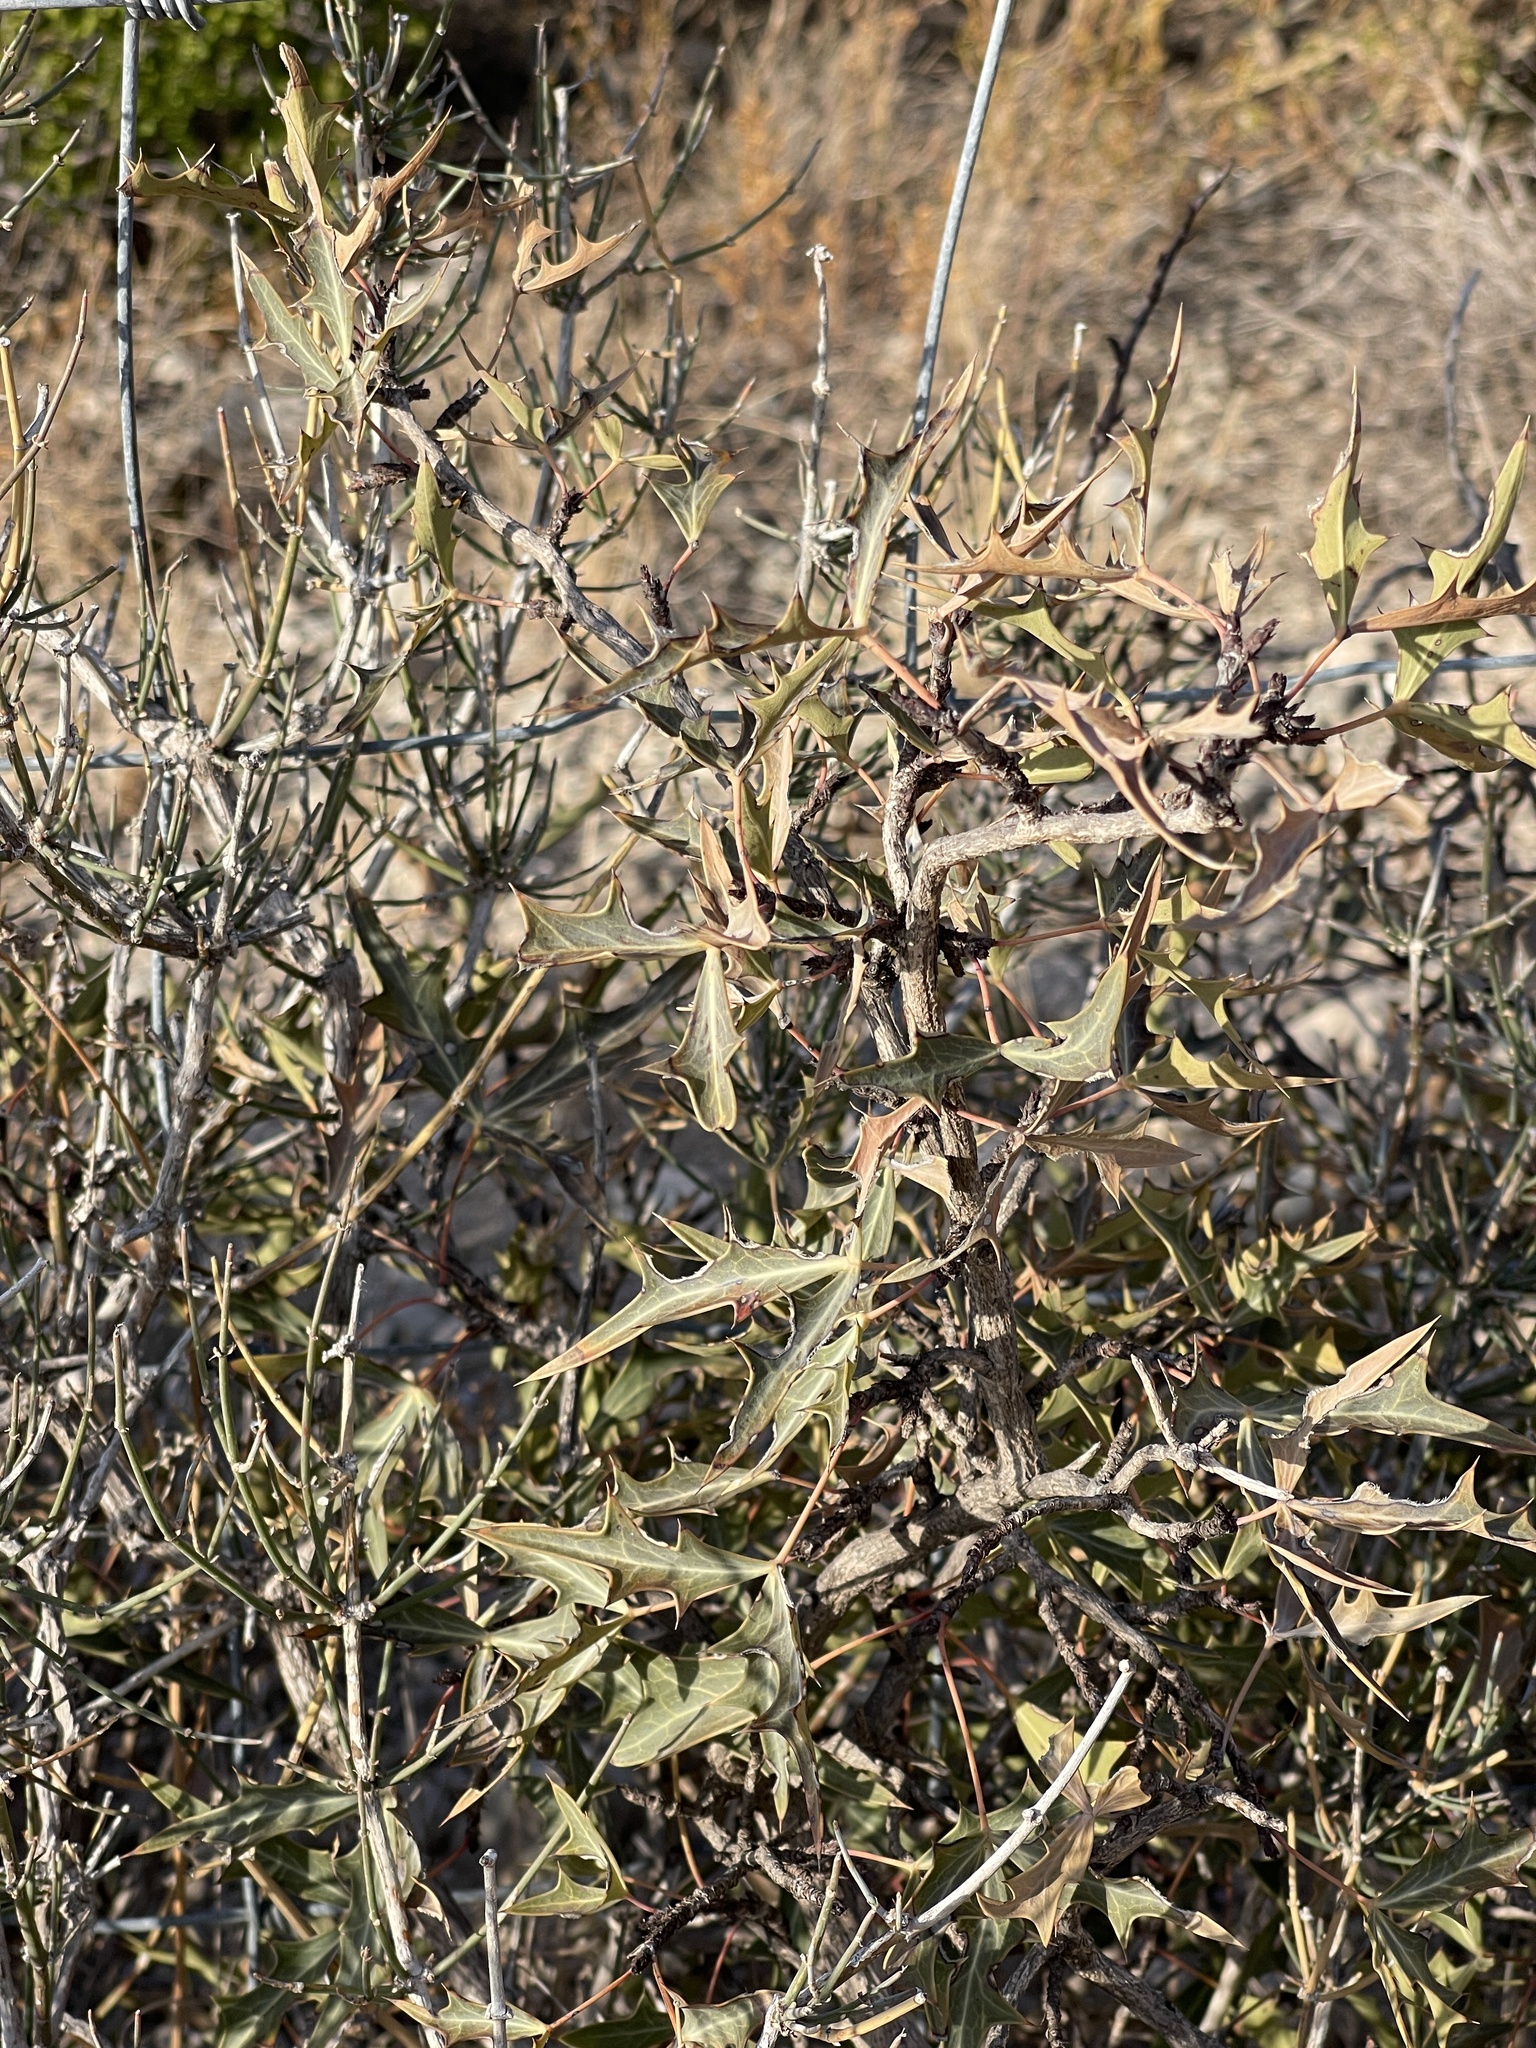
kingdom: Plantae
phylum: Tracheophyta
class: Magnoliopsida
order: Ranunculales
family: Berberidaceae
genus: Alloberberis
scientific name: Alloberberis trifoliolata
